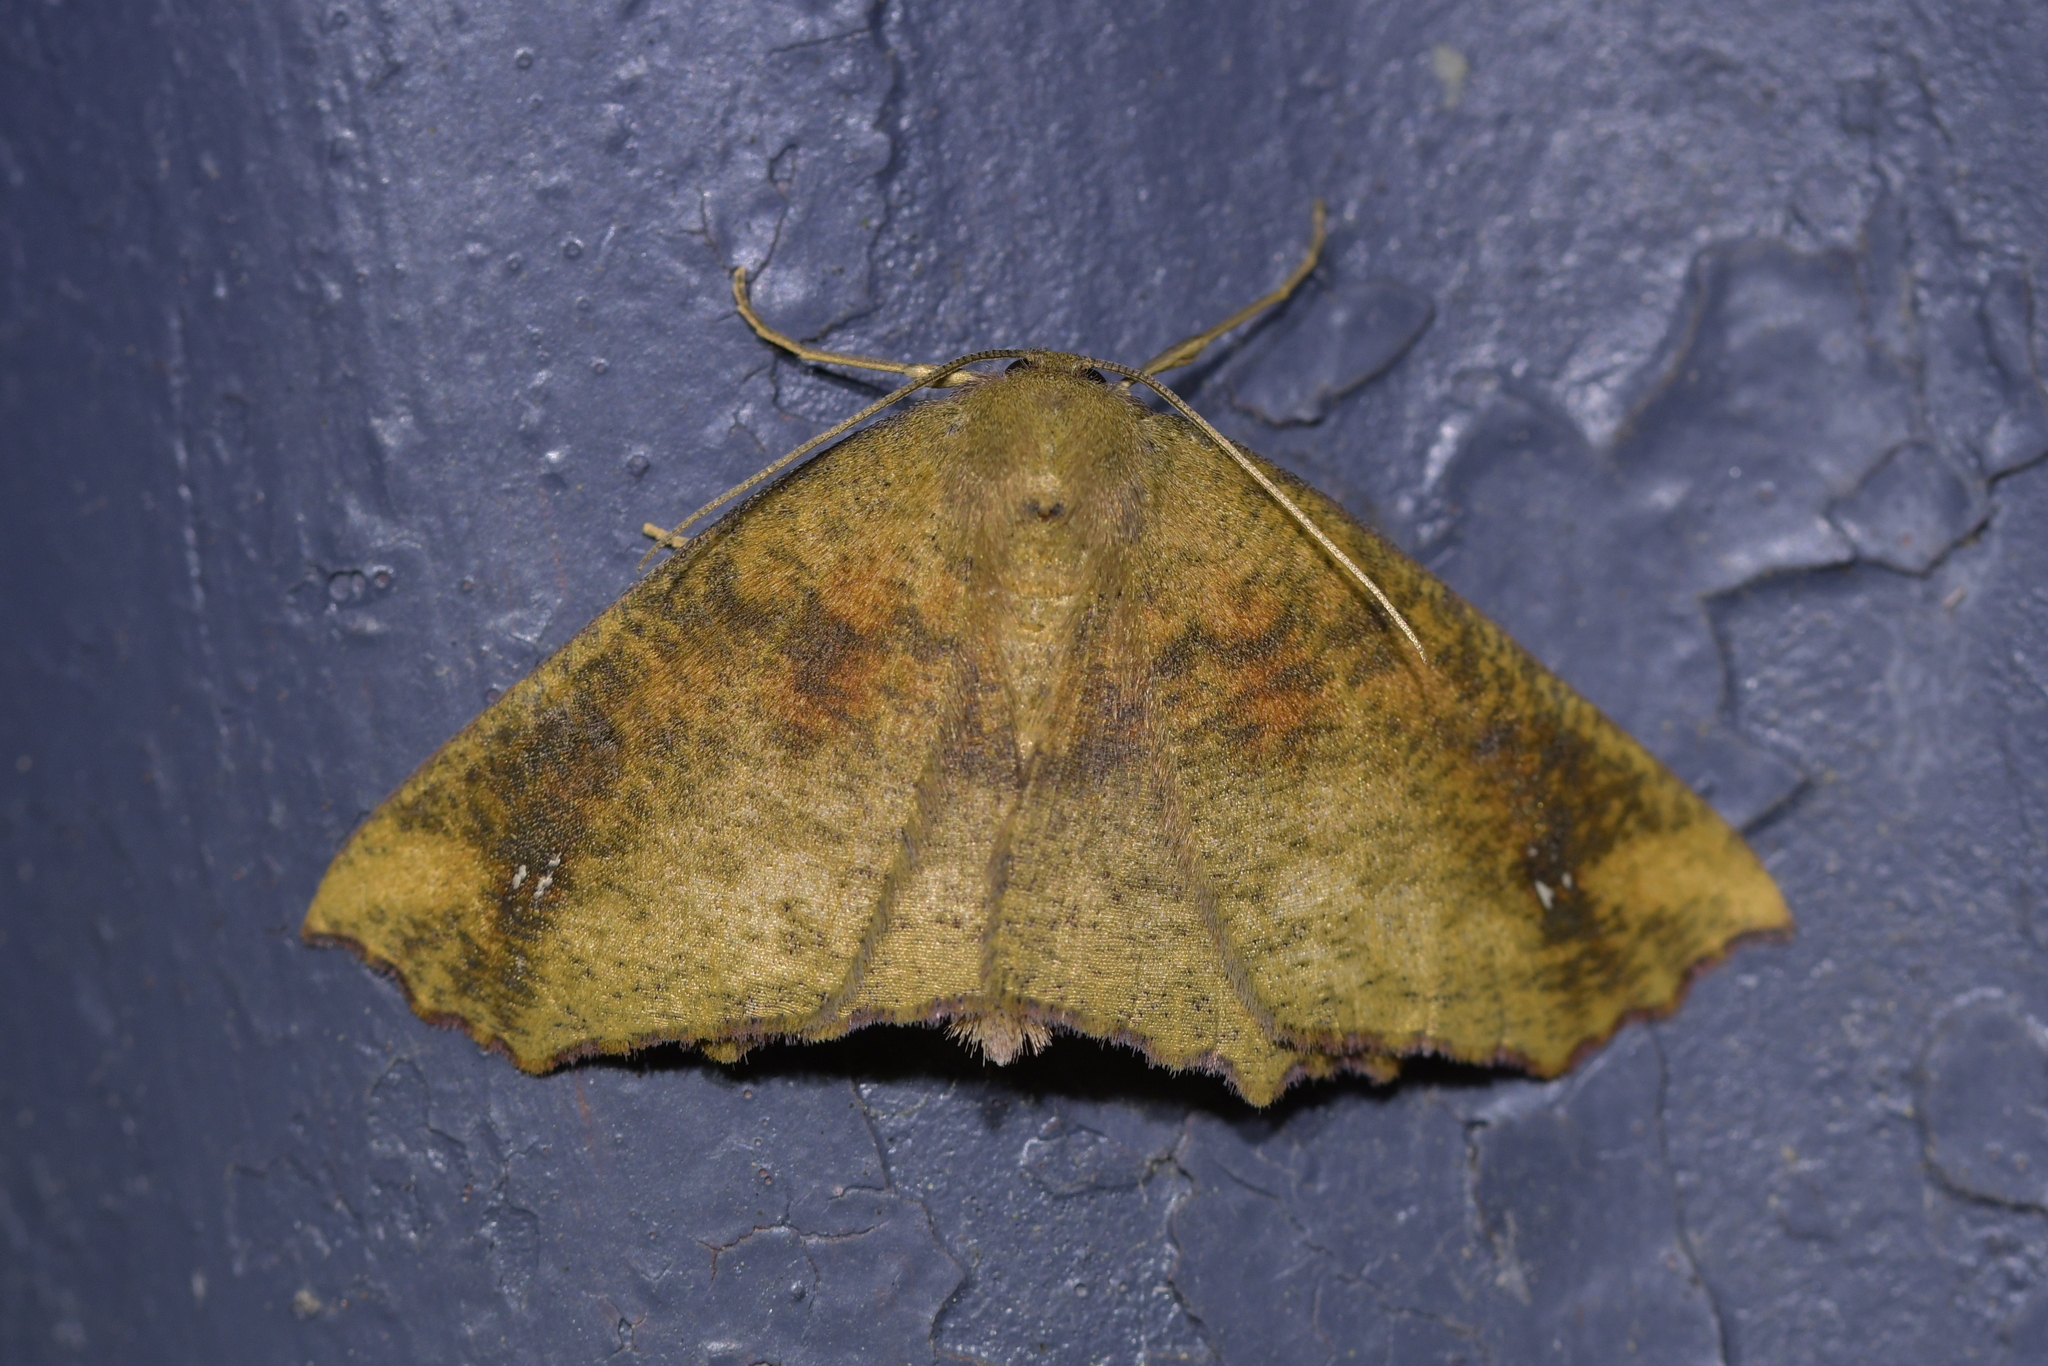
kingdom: Animalia
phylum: Arthropoda
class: Insecta
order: Lepidoptera
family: Geometridae
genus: Xyridacma
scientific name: Xyridacma ustaria
